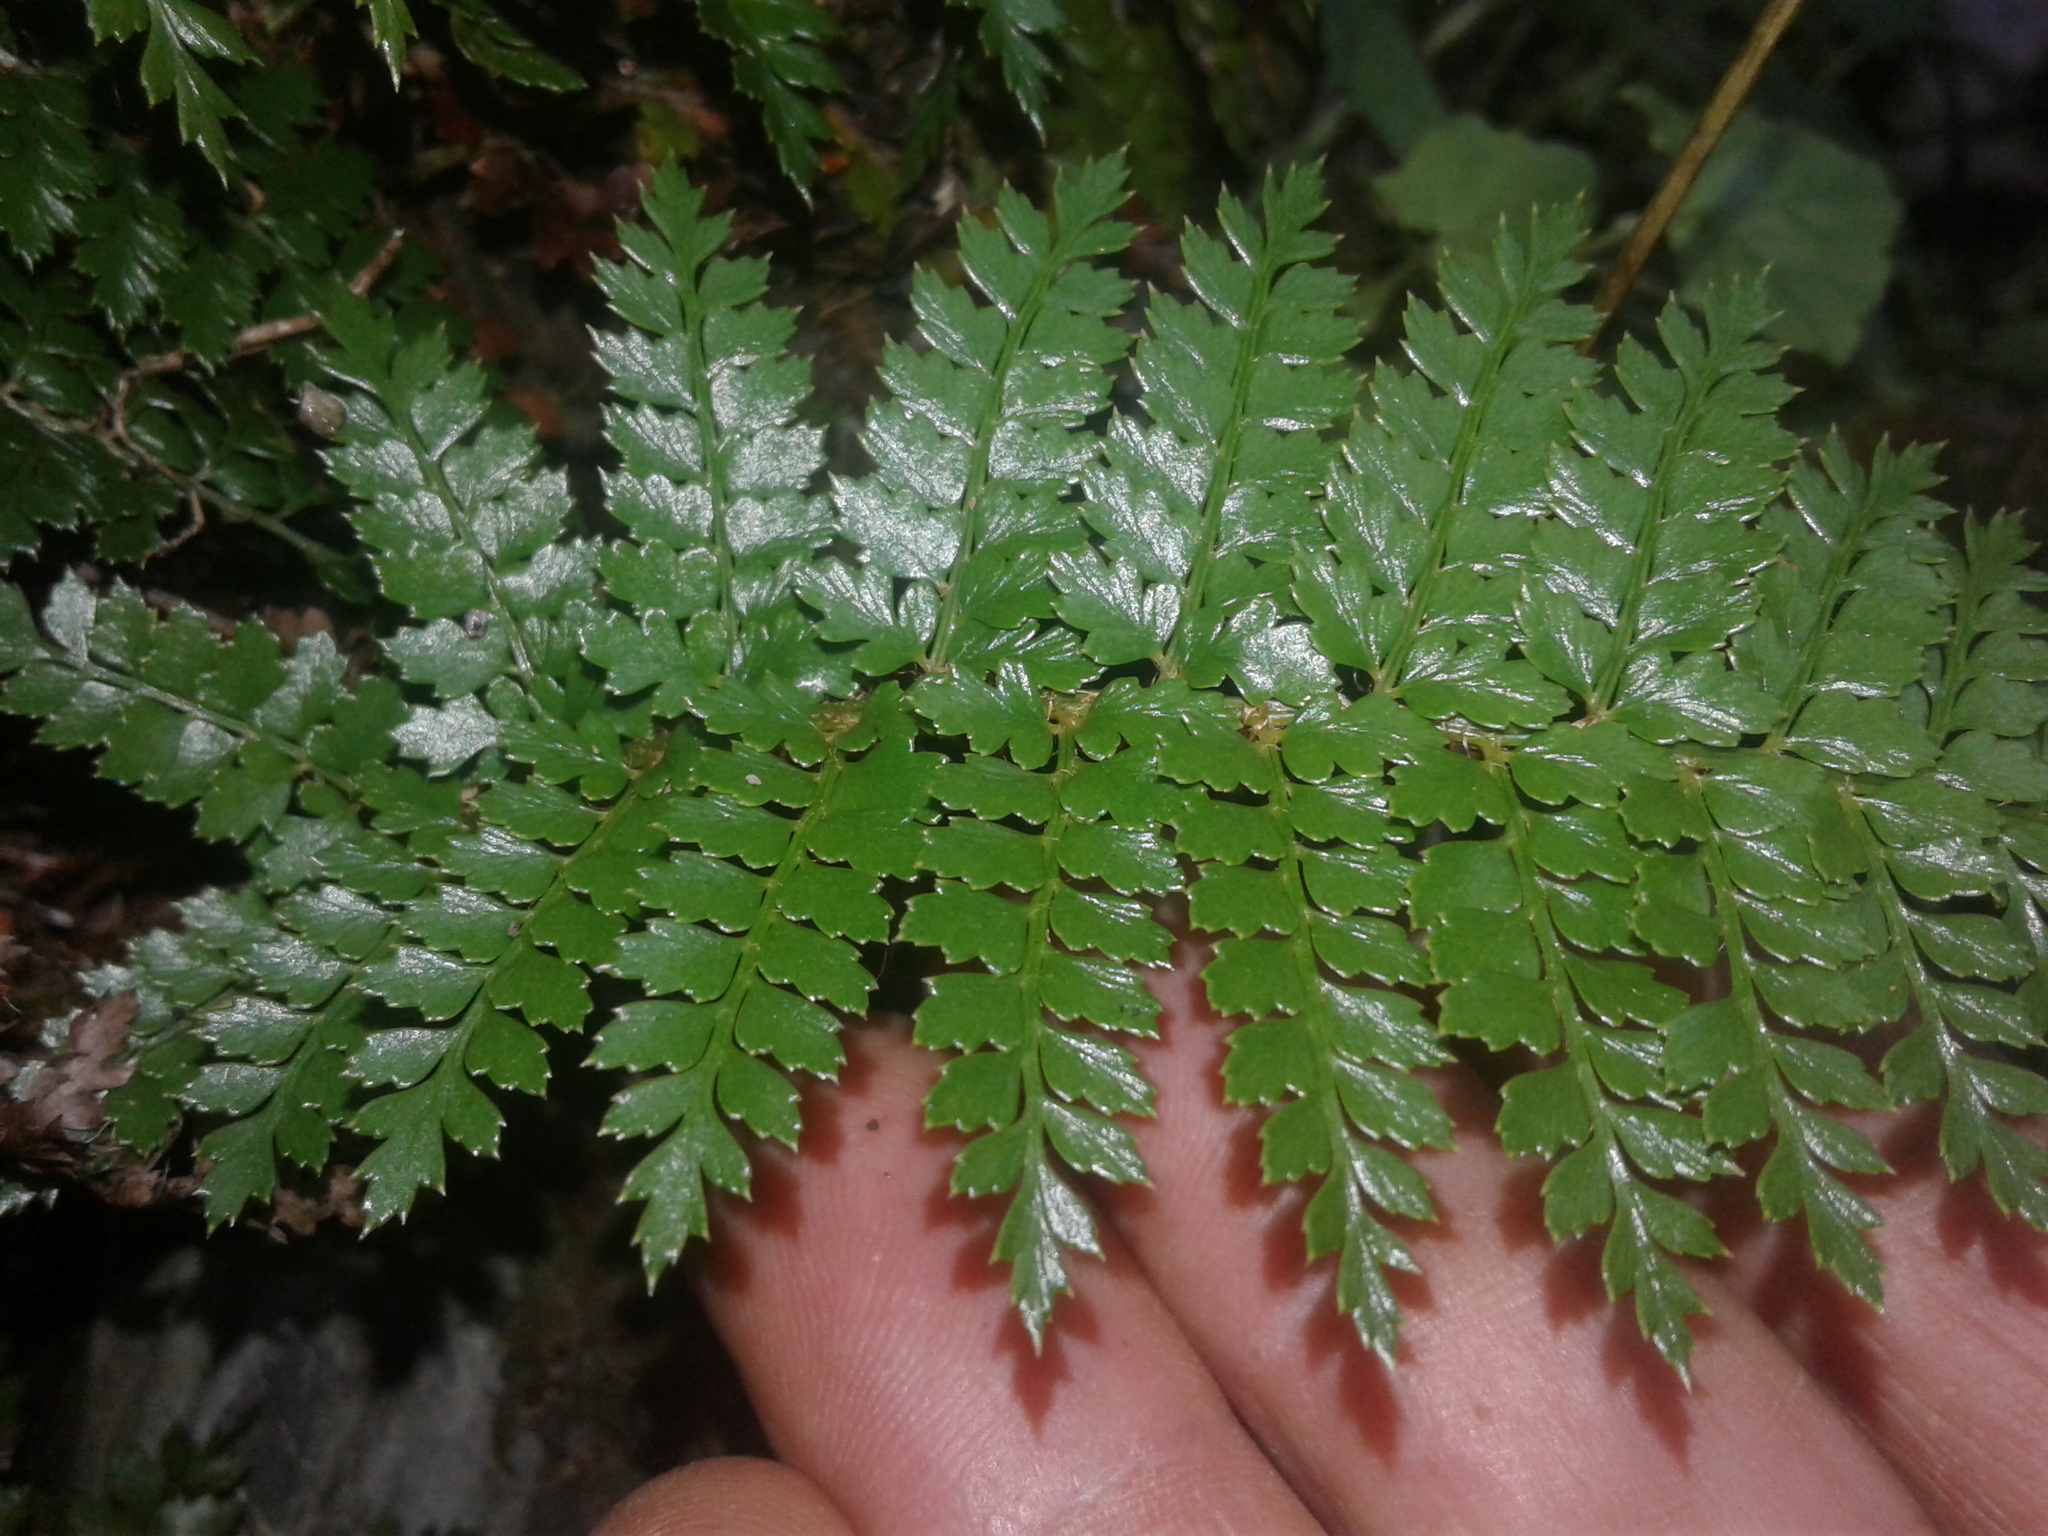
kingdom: Plantae
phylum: Tracheophyta
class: Polypodiopsida
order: Polypodiales
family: Dryopteridaceae
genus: Polystichum
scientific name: Polystichum vestitum
